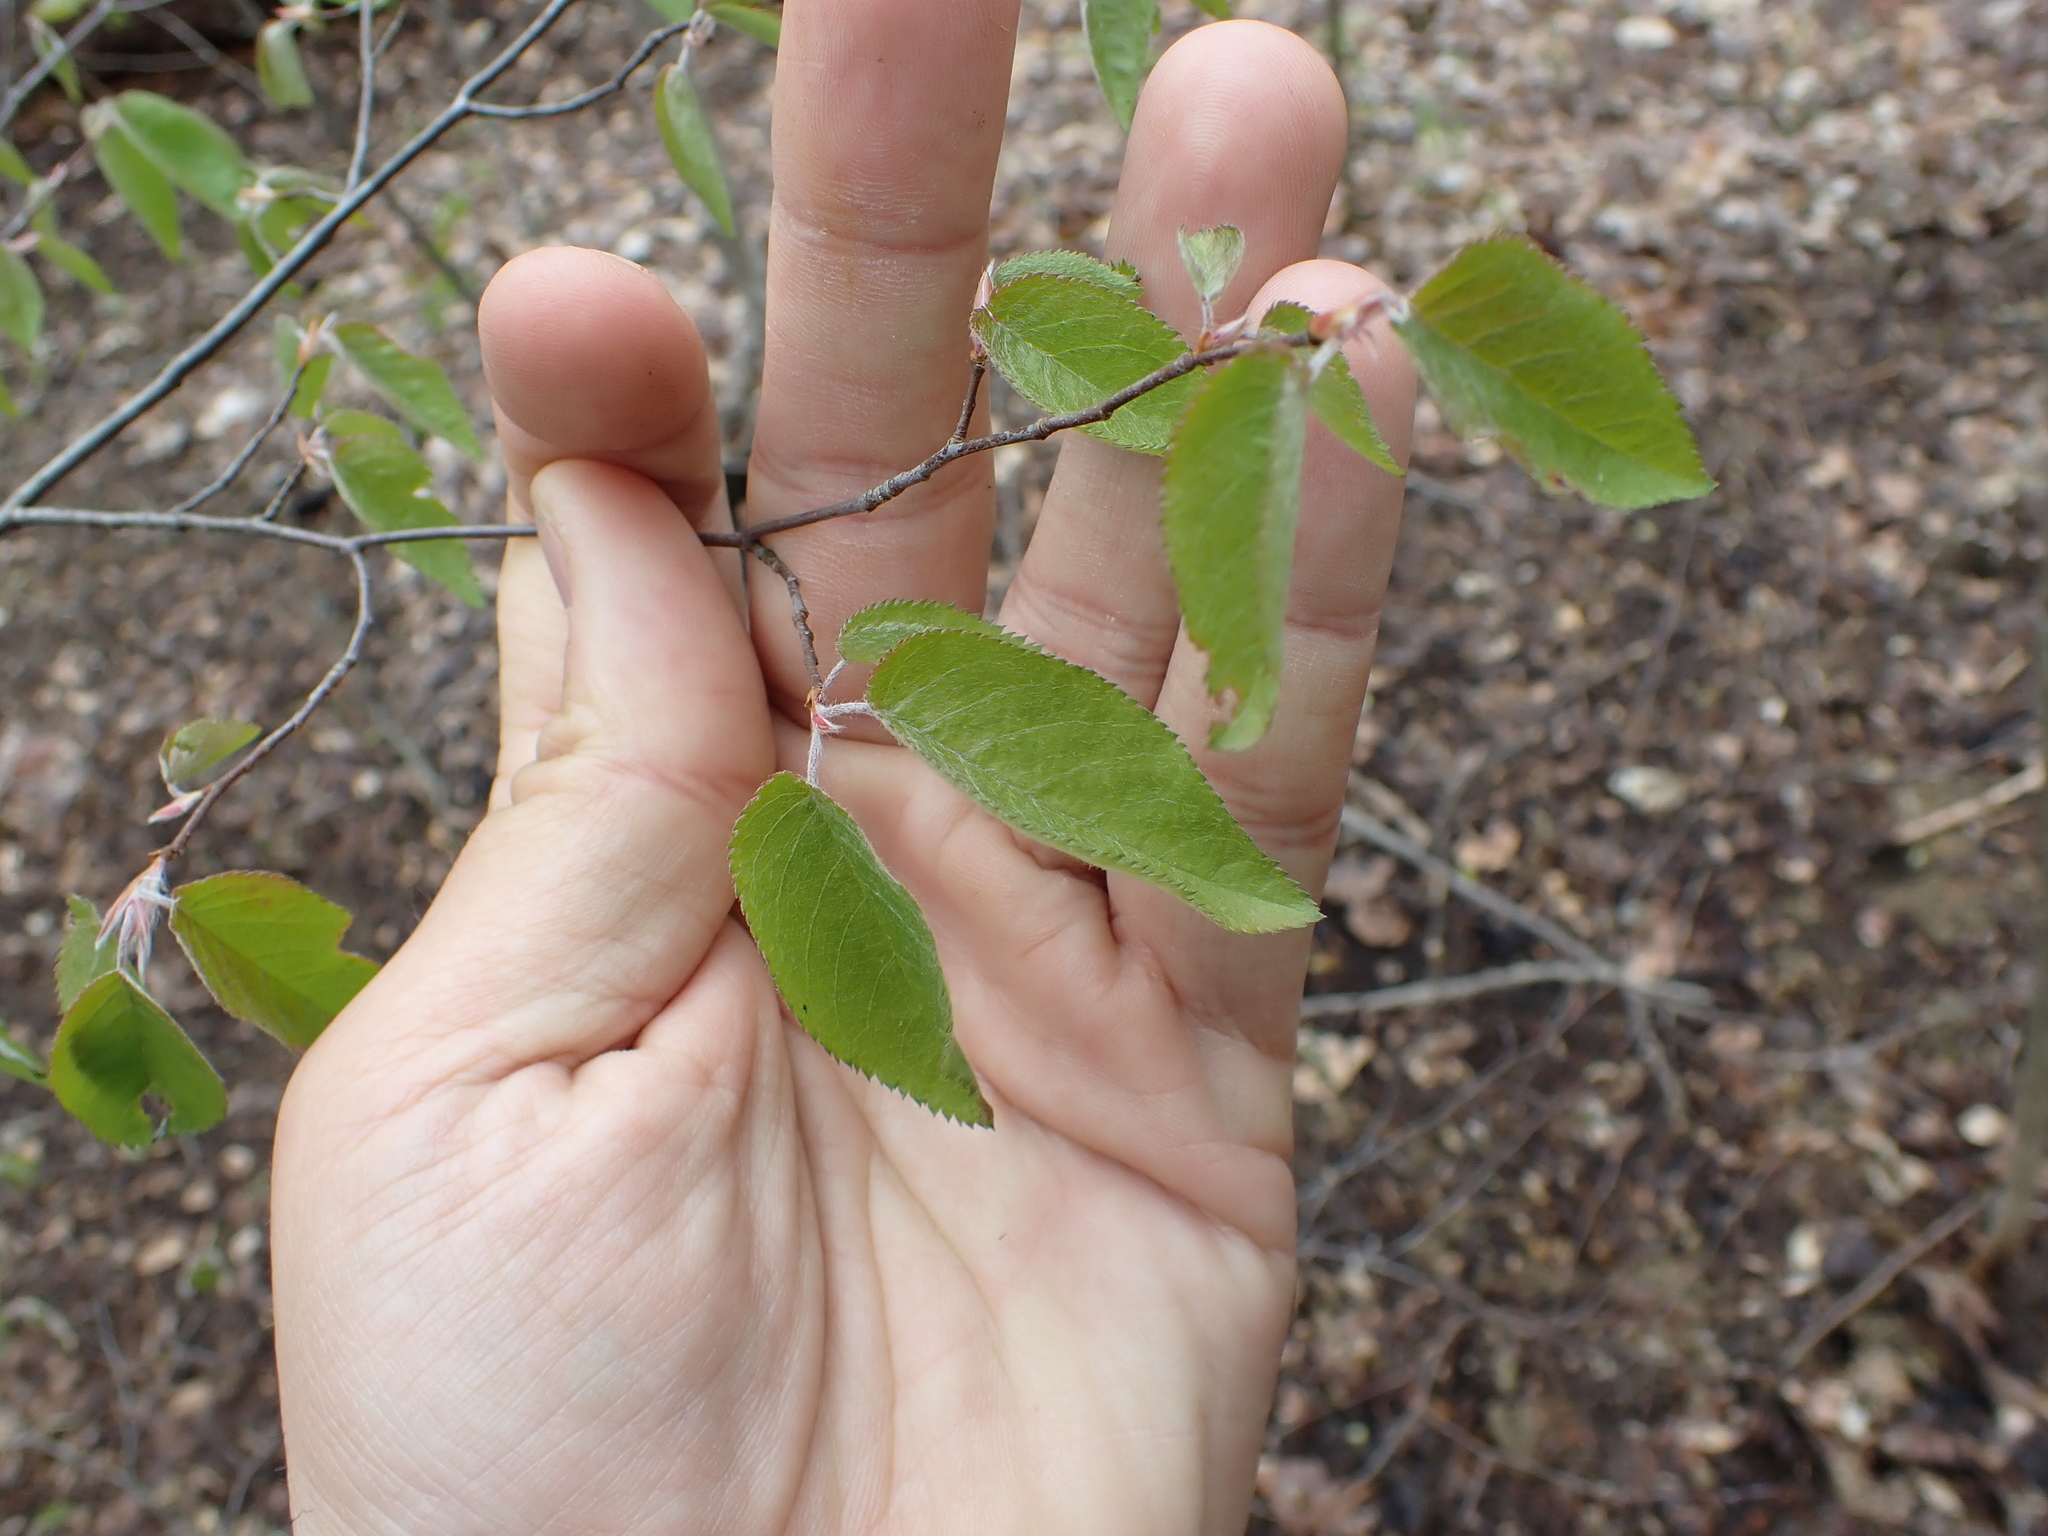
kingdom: Plantae
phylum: Tracheophyta
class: Magnoliopsida
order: Fagales
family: Betulaceae
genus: Carpinus
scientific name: Carpinus caroliniana
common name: American hornbeam
